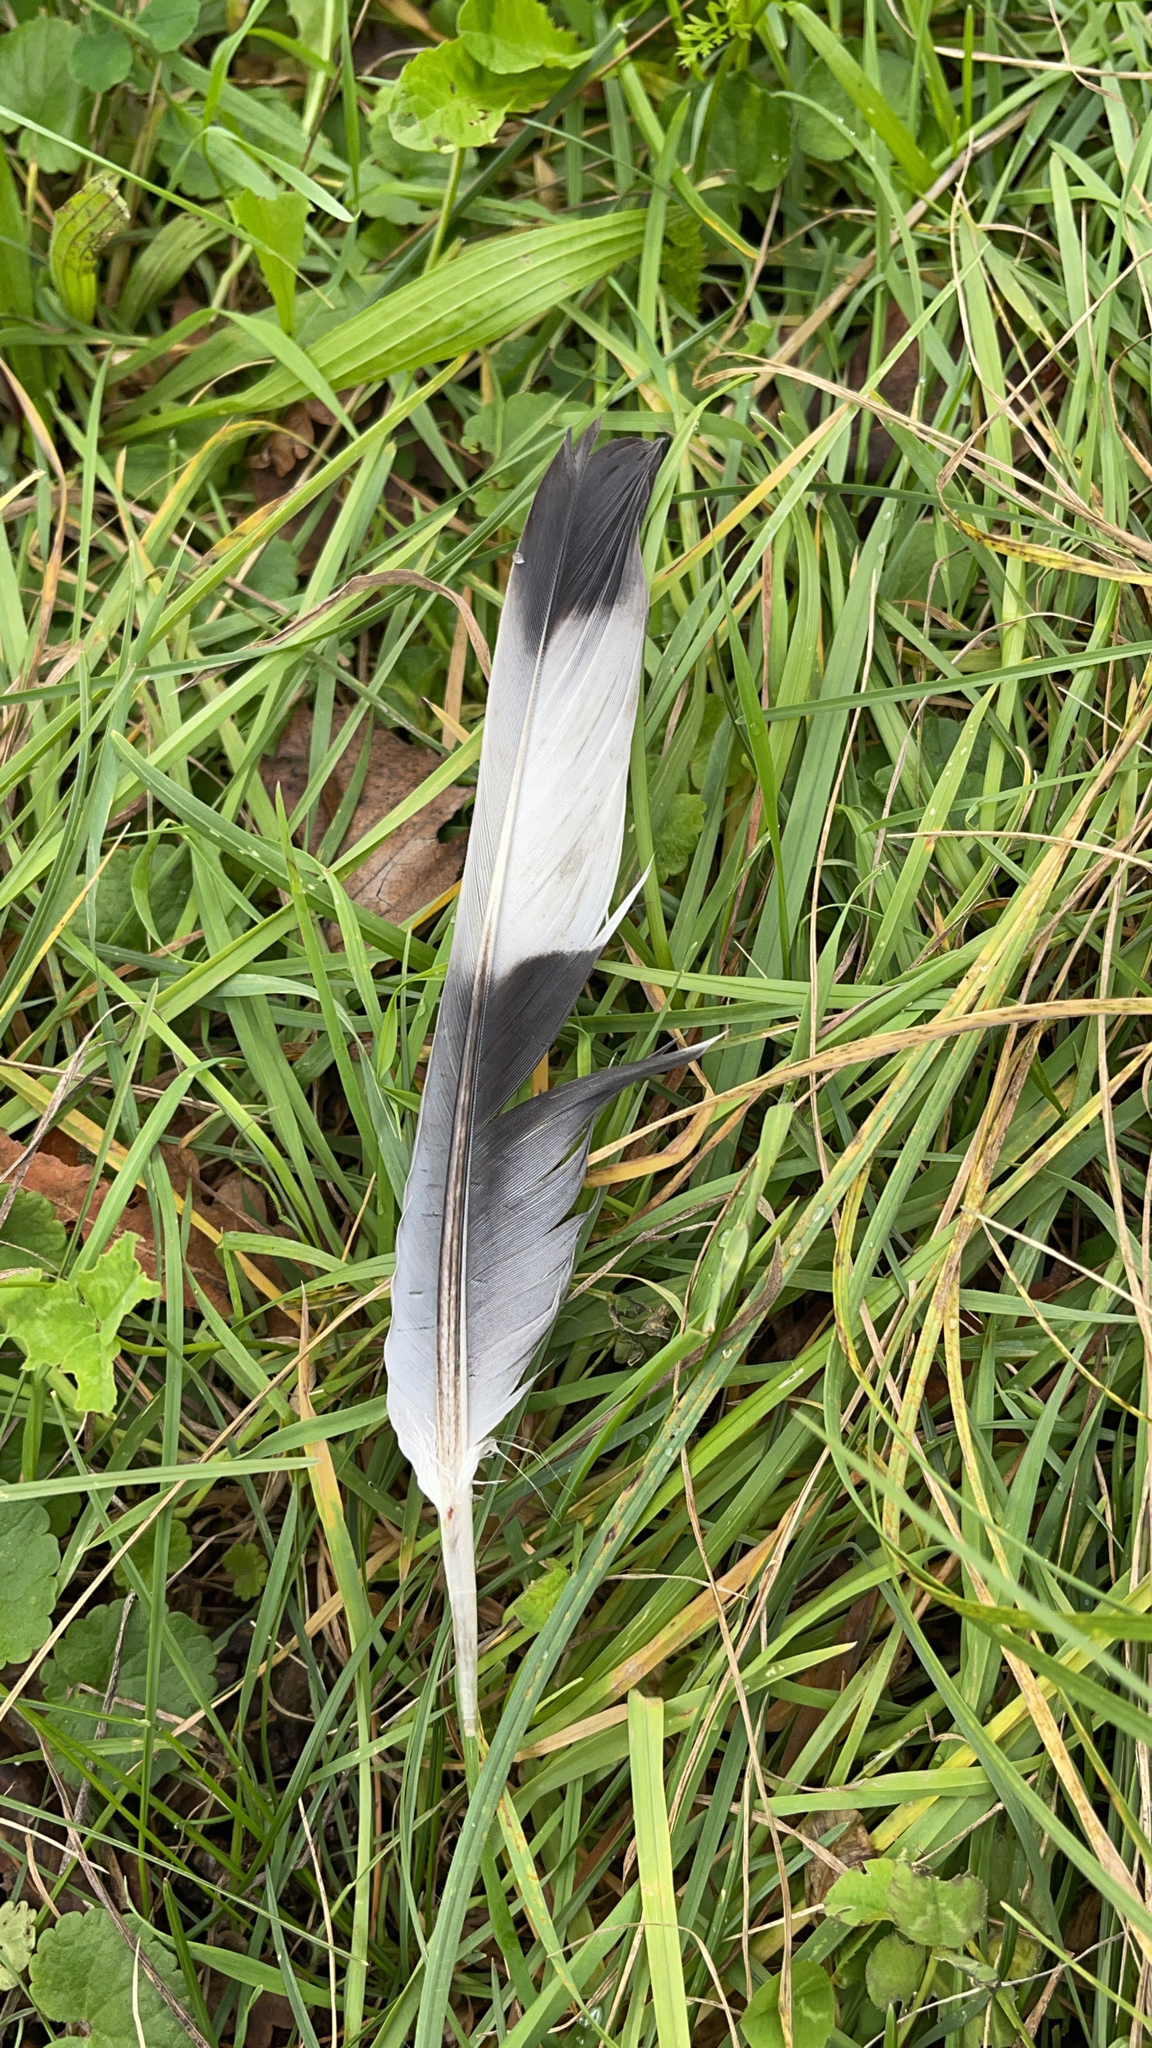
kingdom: Animalia
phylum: Chordata
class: Aves
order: Columbiformes
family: Columbidae
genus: Columba
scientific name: Columba palumbus
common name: Common wood pigeon
